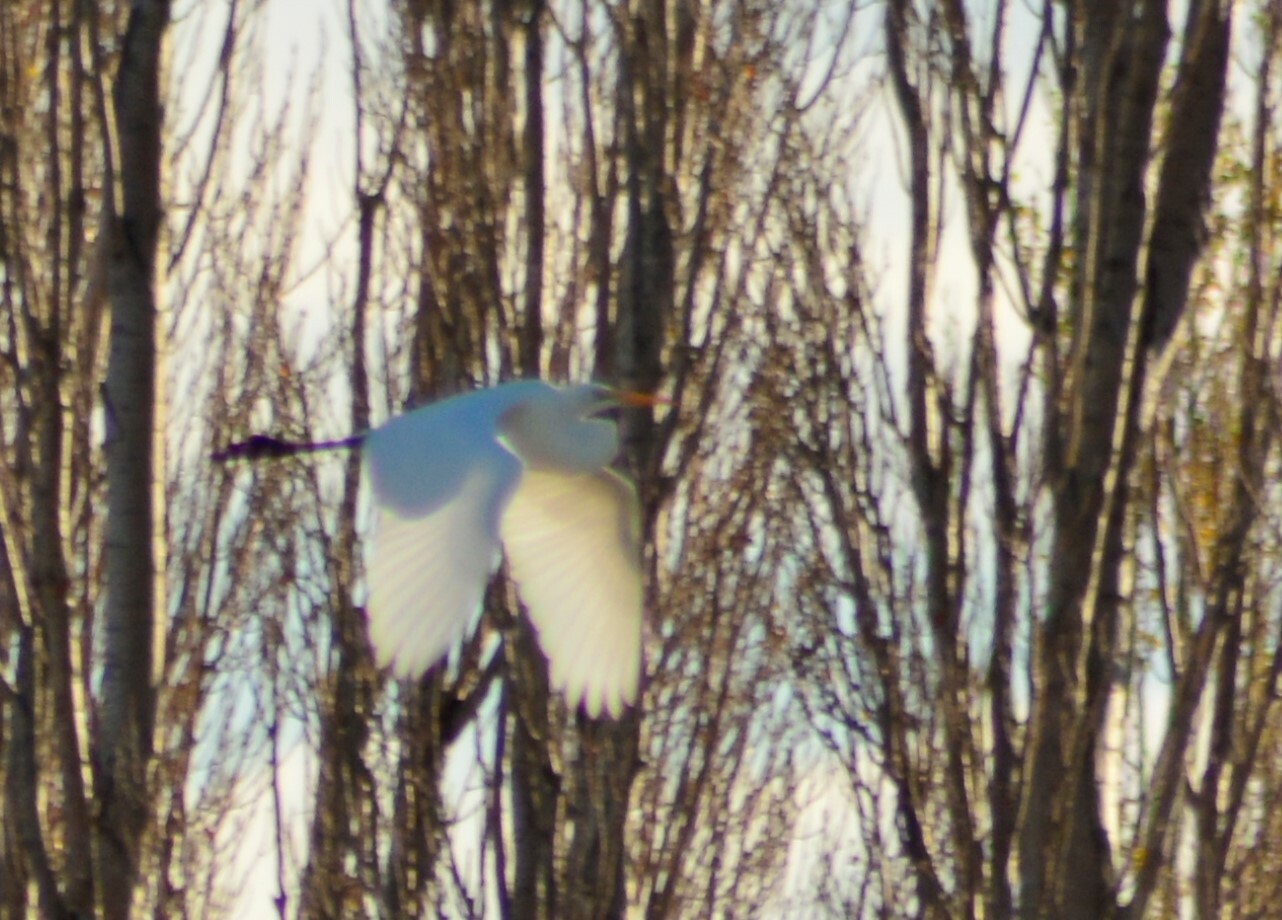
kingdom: Animalia
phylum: Chordata
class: Aves
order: Pelecaniformes
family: Ardeidae
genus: Ardea
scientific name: Ardea alba
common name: Great egret
